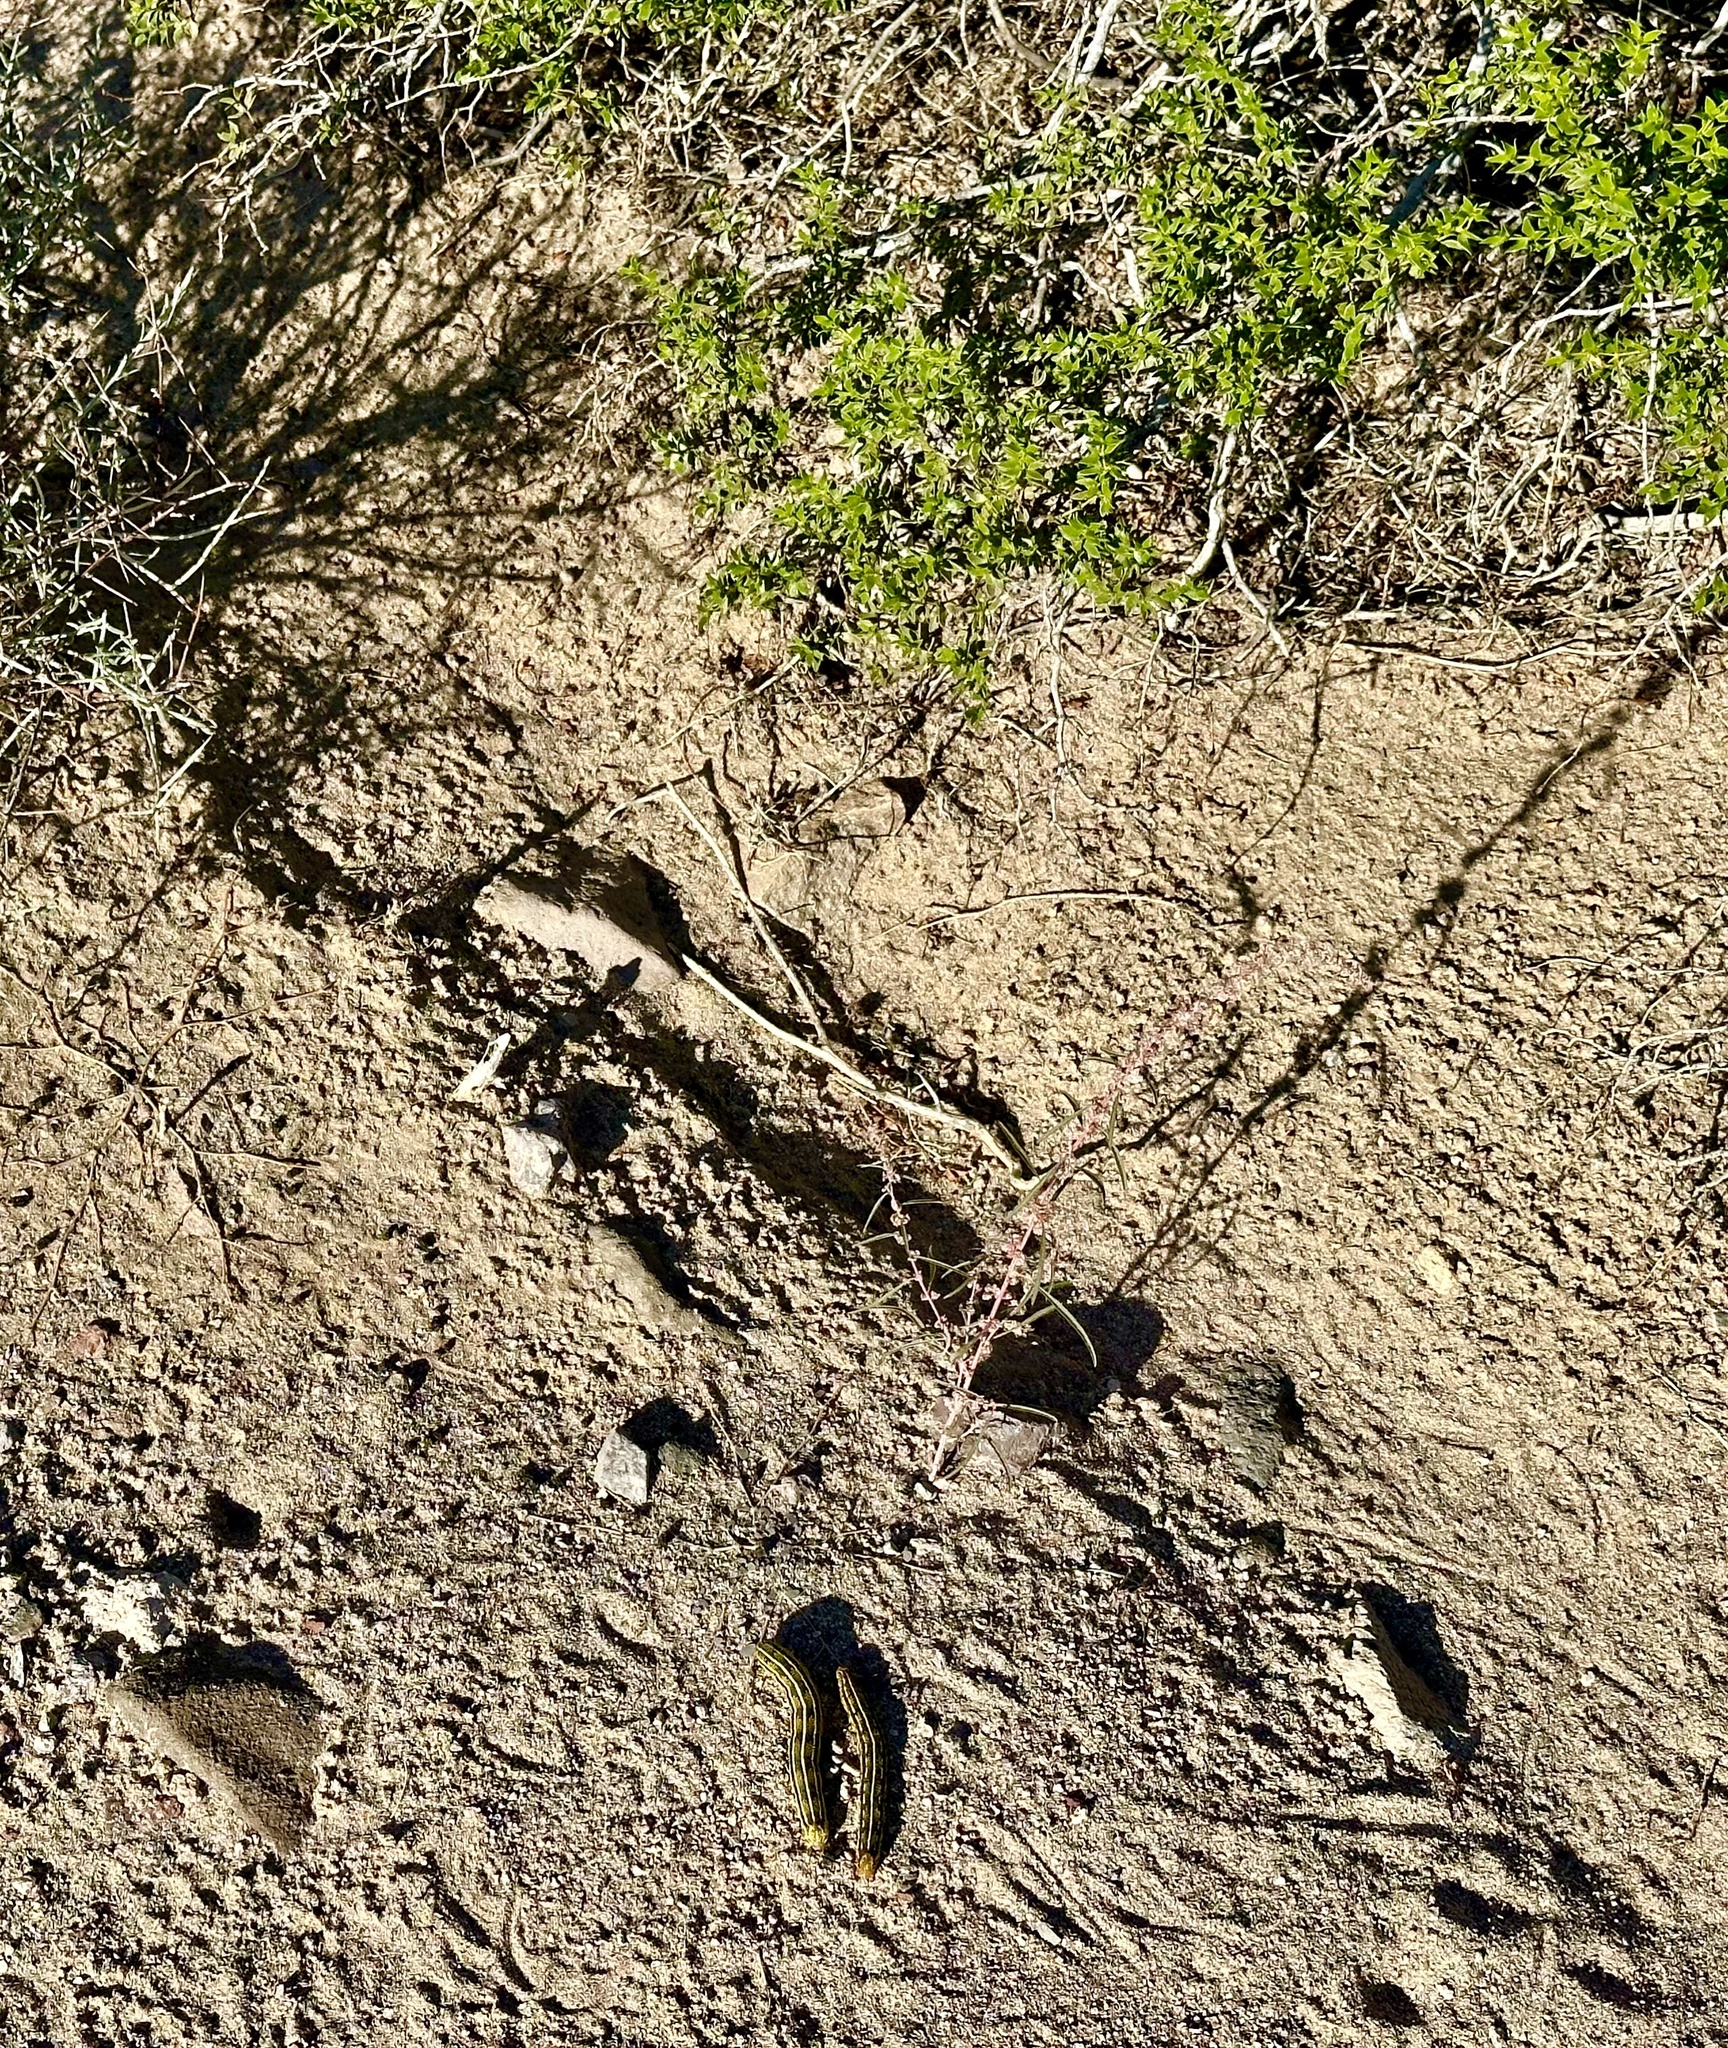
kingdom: Animalia
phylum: Arthropoda
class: Insecta
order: Lepidoptera
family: Sphingidae
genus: Hyles
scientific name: Hyles lineata
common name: White-lined sphinx
